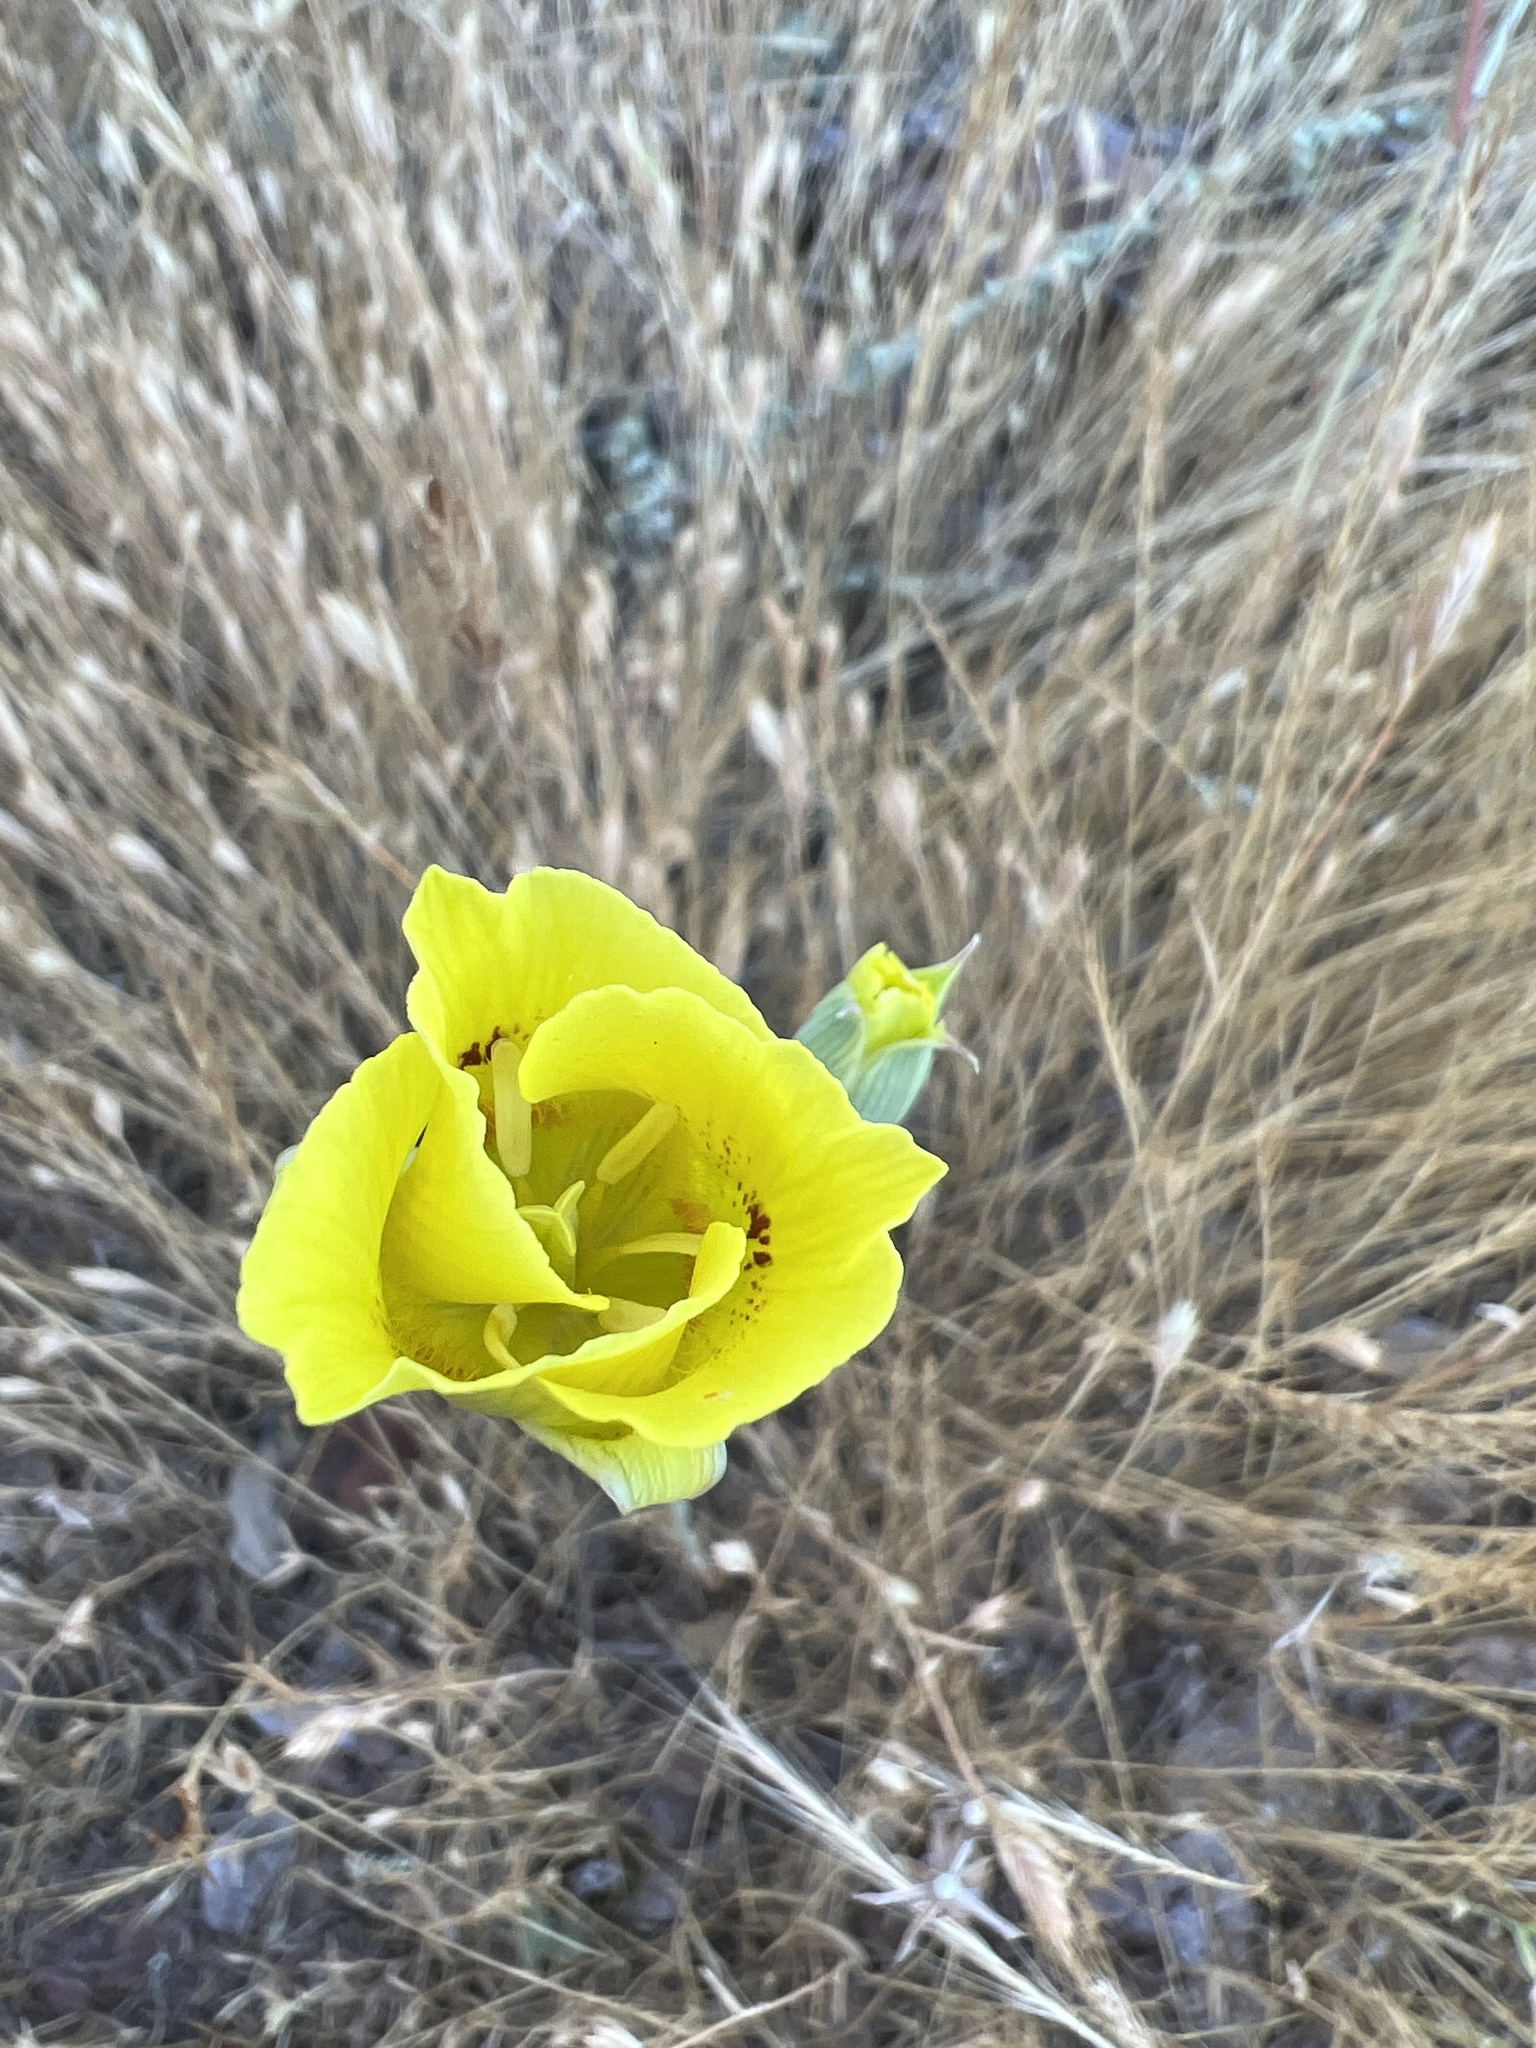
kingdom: Plantae
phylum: Tracheophyta
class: Liliopsida
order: Liliales
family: Liliaceae
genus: Calochortus
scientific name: Calochortus luteus
